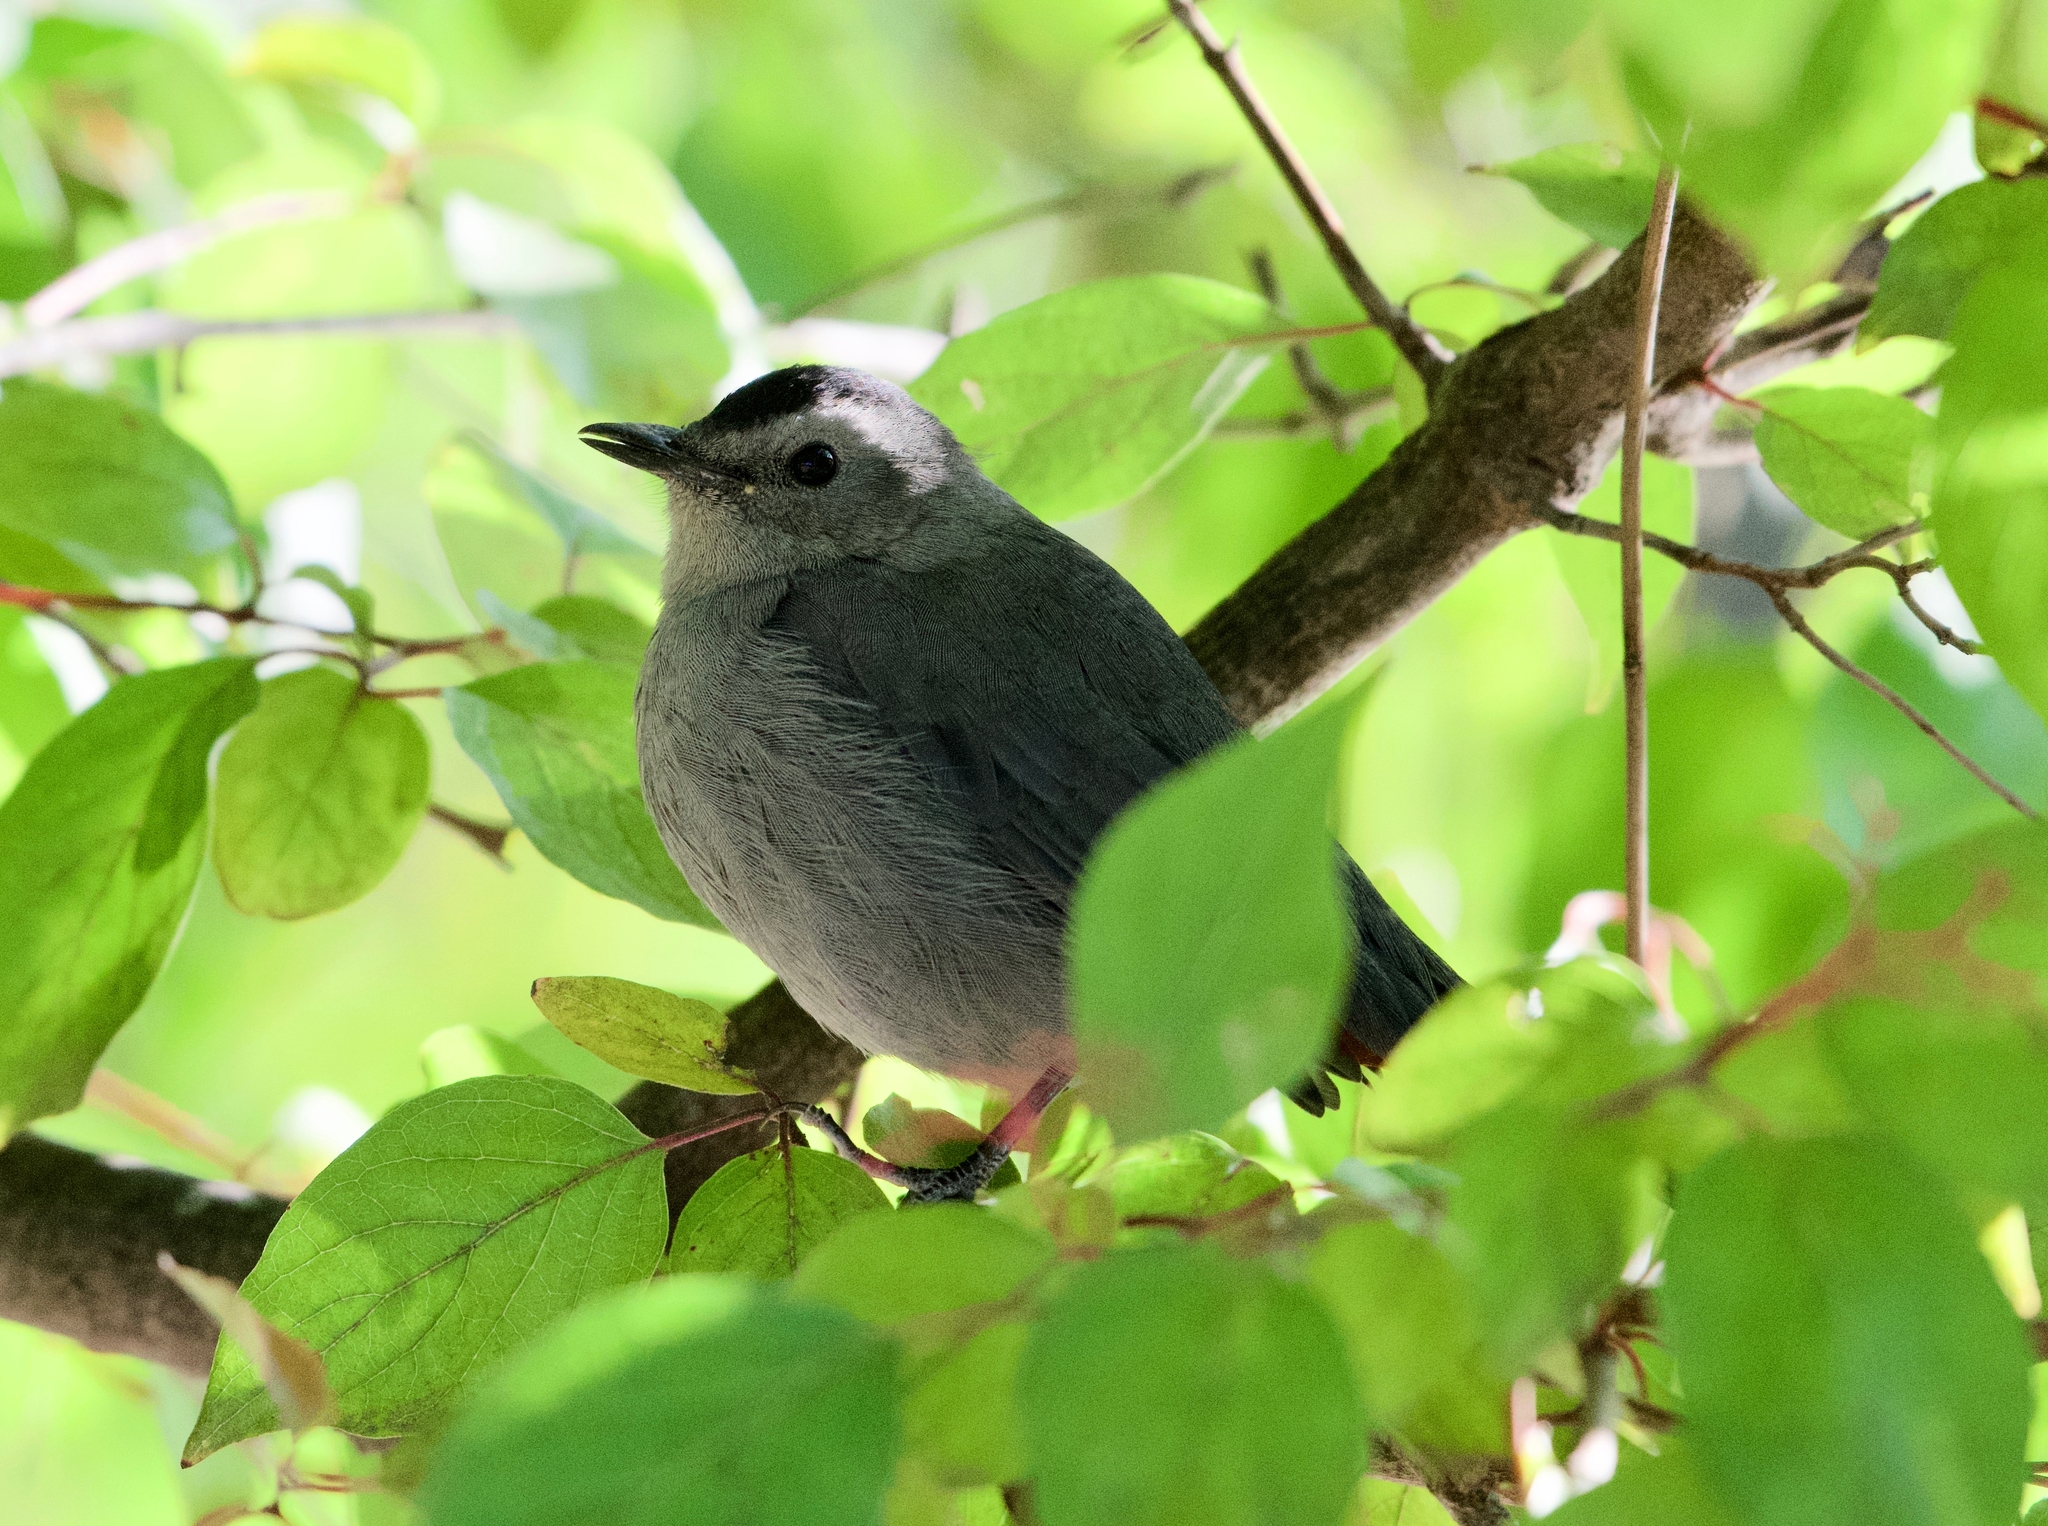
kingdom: Animalia
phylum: Chordata
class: Aves
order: Passeriformes
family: Mimidae
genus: Dumetella
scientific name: Dumetella carolinensis
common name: Gray catbird
